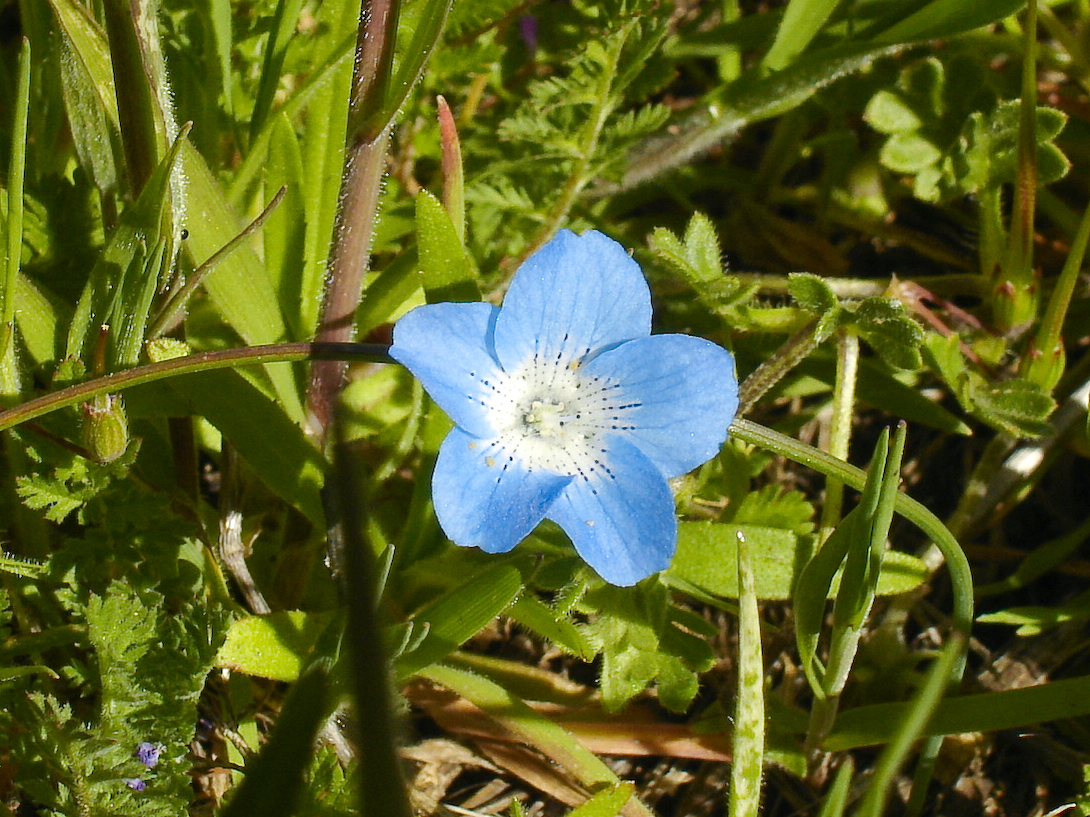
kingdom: Plantae
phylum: Tracheophyta
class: Magnoliopsida
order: Boraginales
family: Hydrophyllaceae
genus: Nemophila
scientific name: Nemophila menziesii
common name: Baby's-blue-eyes
